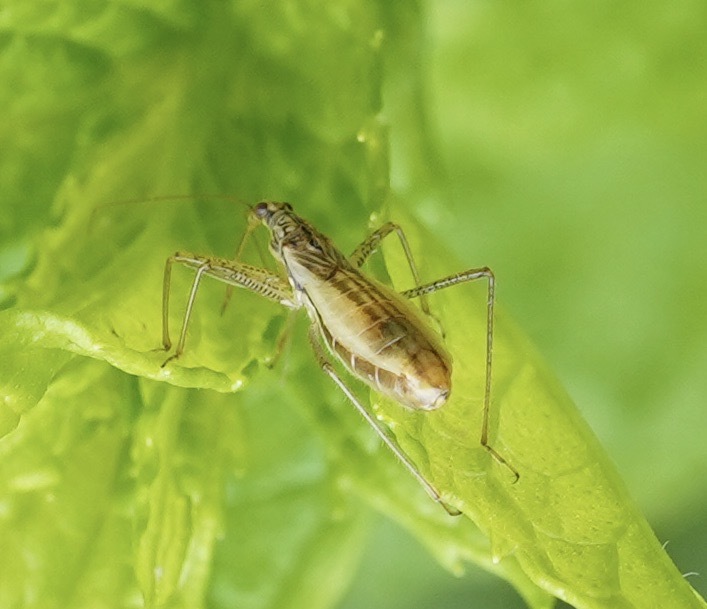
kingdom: Animalia
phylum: Arthropoda
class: Insecta
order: Hemiptera
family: Nabidae
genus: Nabis
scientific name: Nabis limbatus
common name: Marsh damselbug
